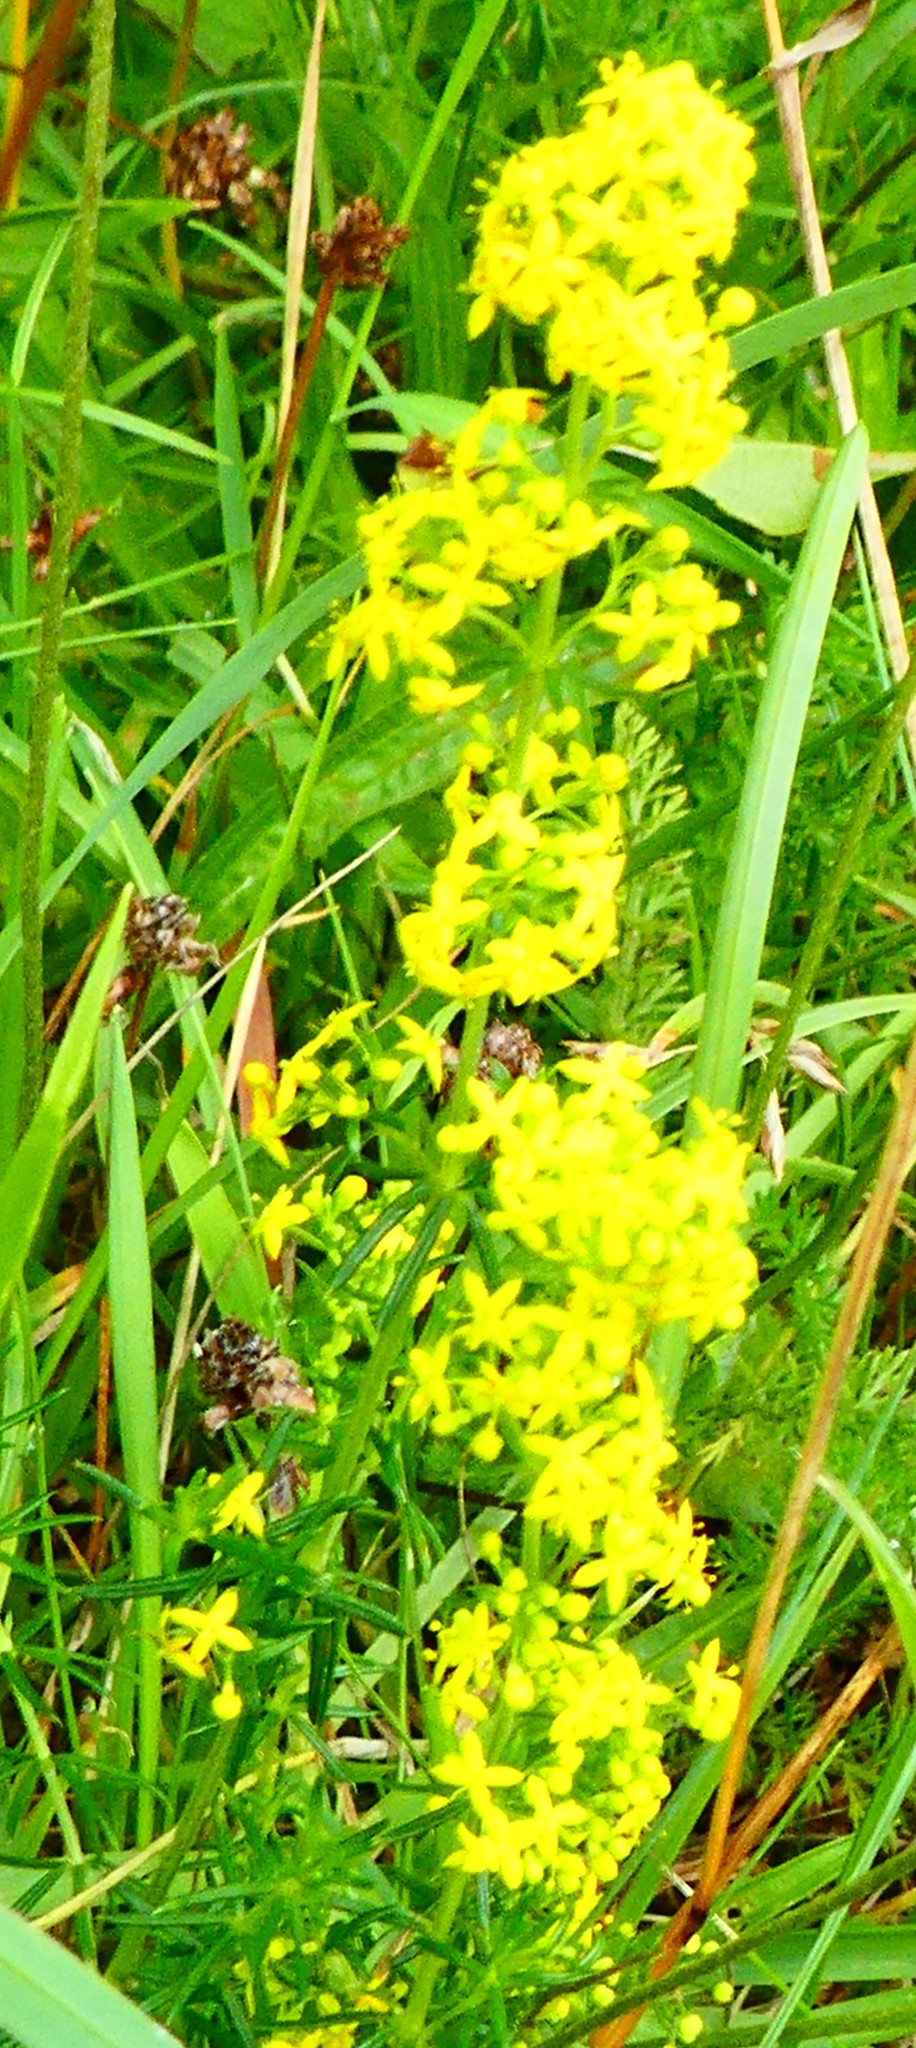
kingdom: Plantae
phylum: Tracheophyta
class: Magnoliopsida
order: Gentianales
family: Rubiaceae
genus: Galium
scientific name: Galium verum
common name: Lady's bedstraw
